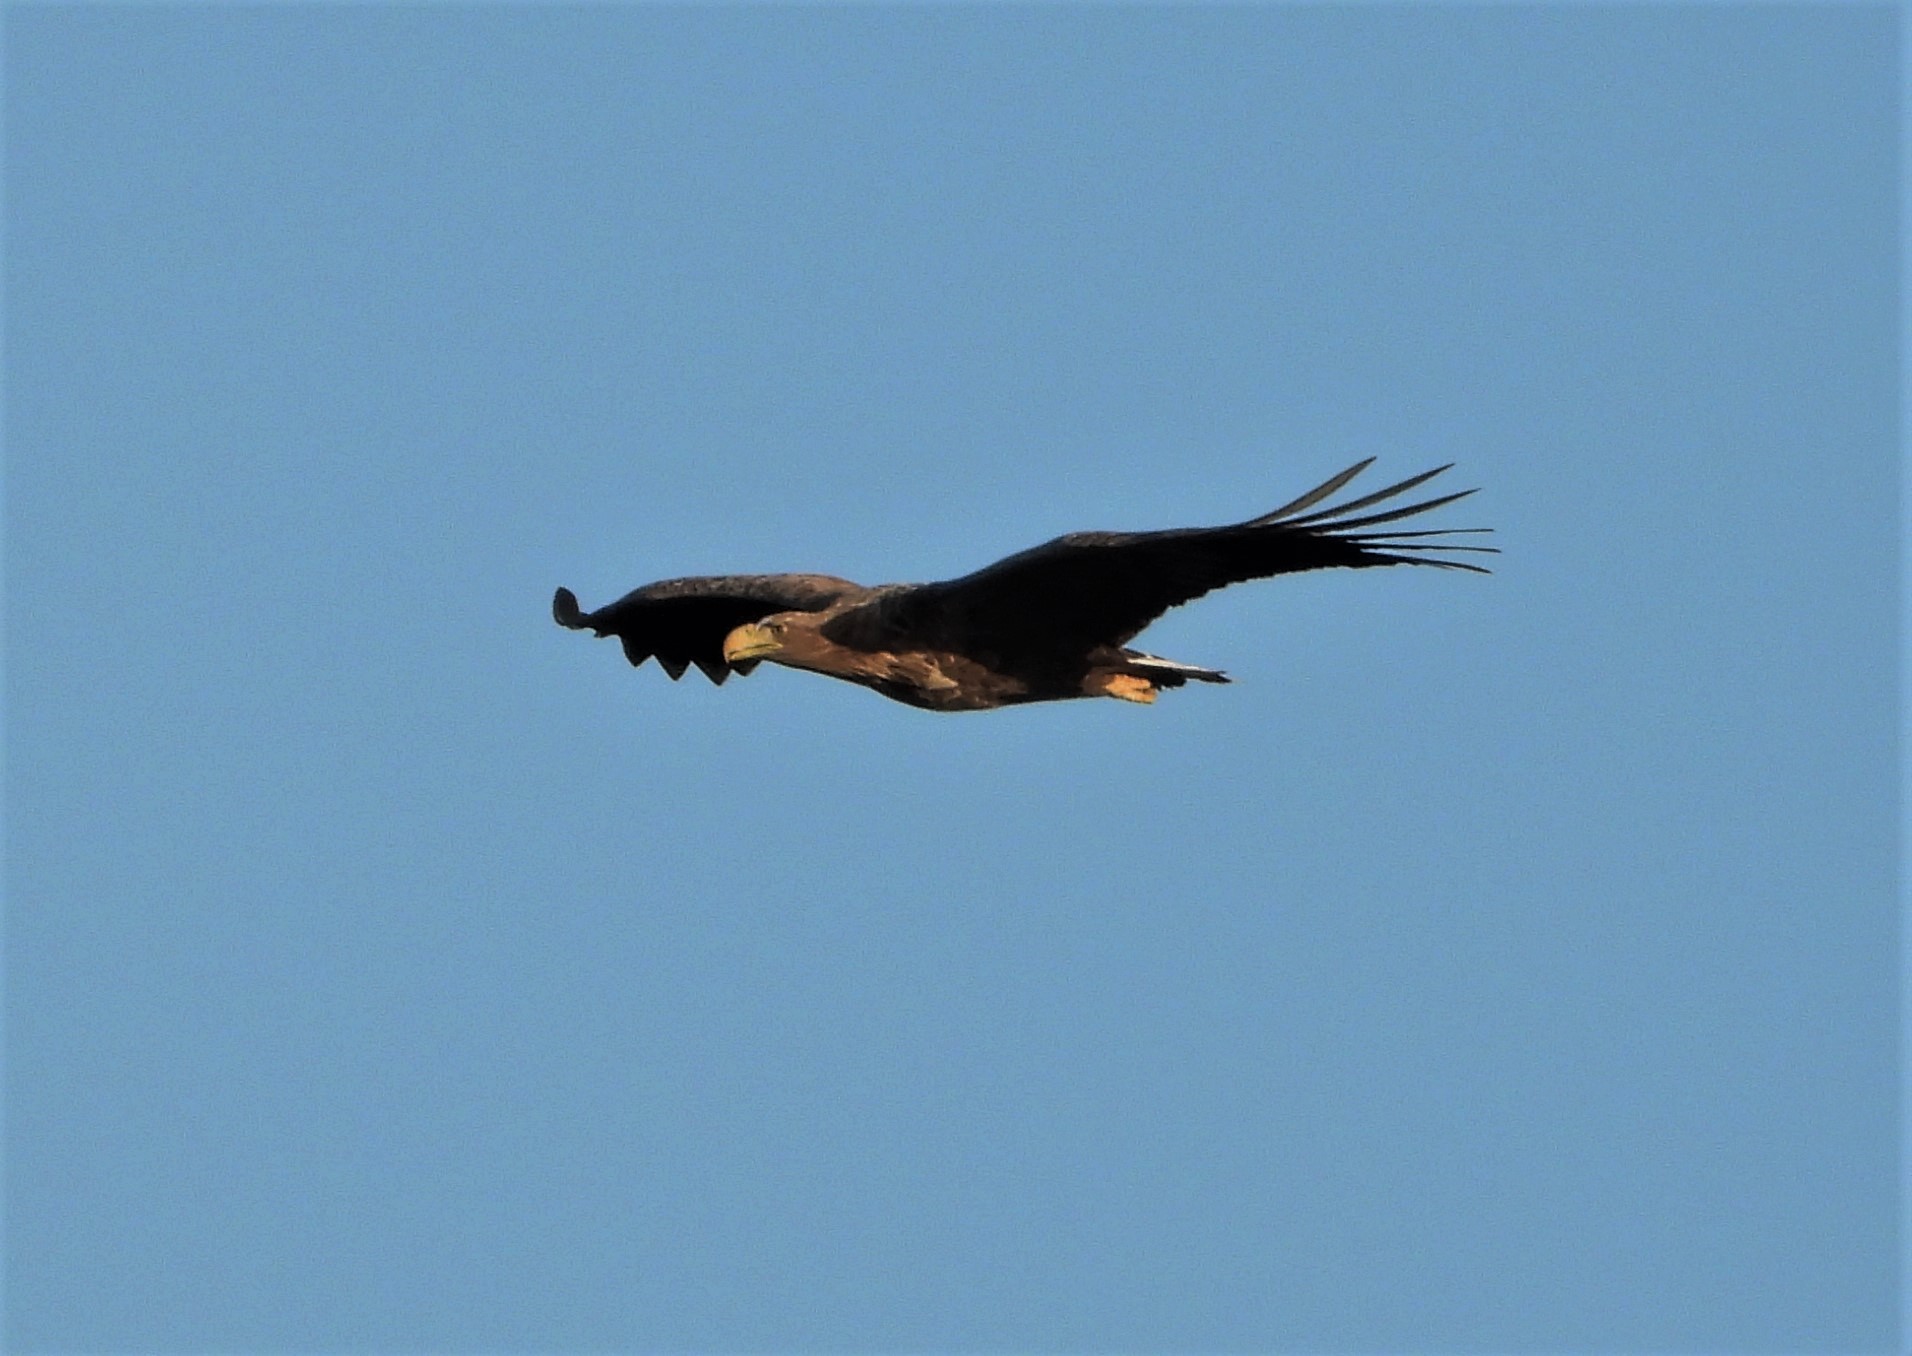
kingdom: Animalia
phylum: Chordata
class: Aves
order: Accipitriformes
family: Accipitridae
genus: Haliaeetus
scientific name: Haliaeetus albicilla
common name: White-tailed eagle
